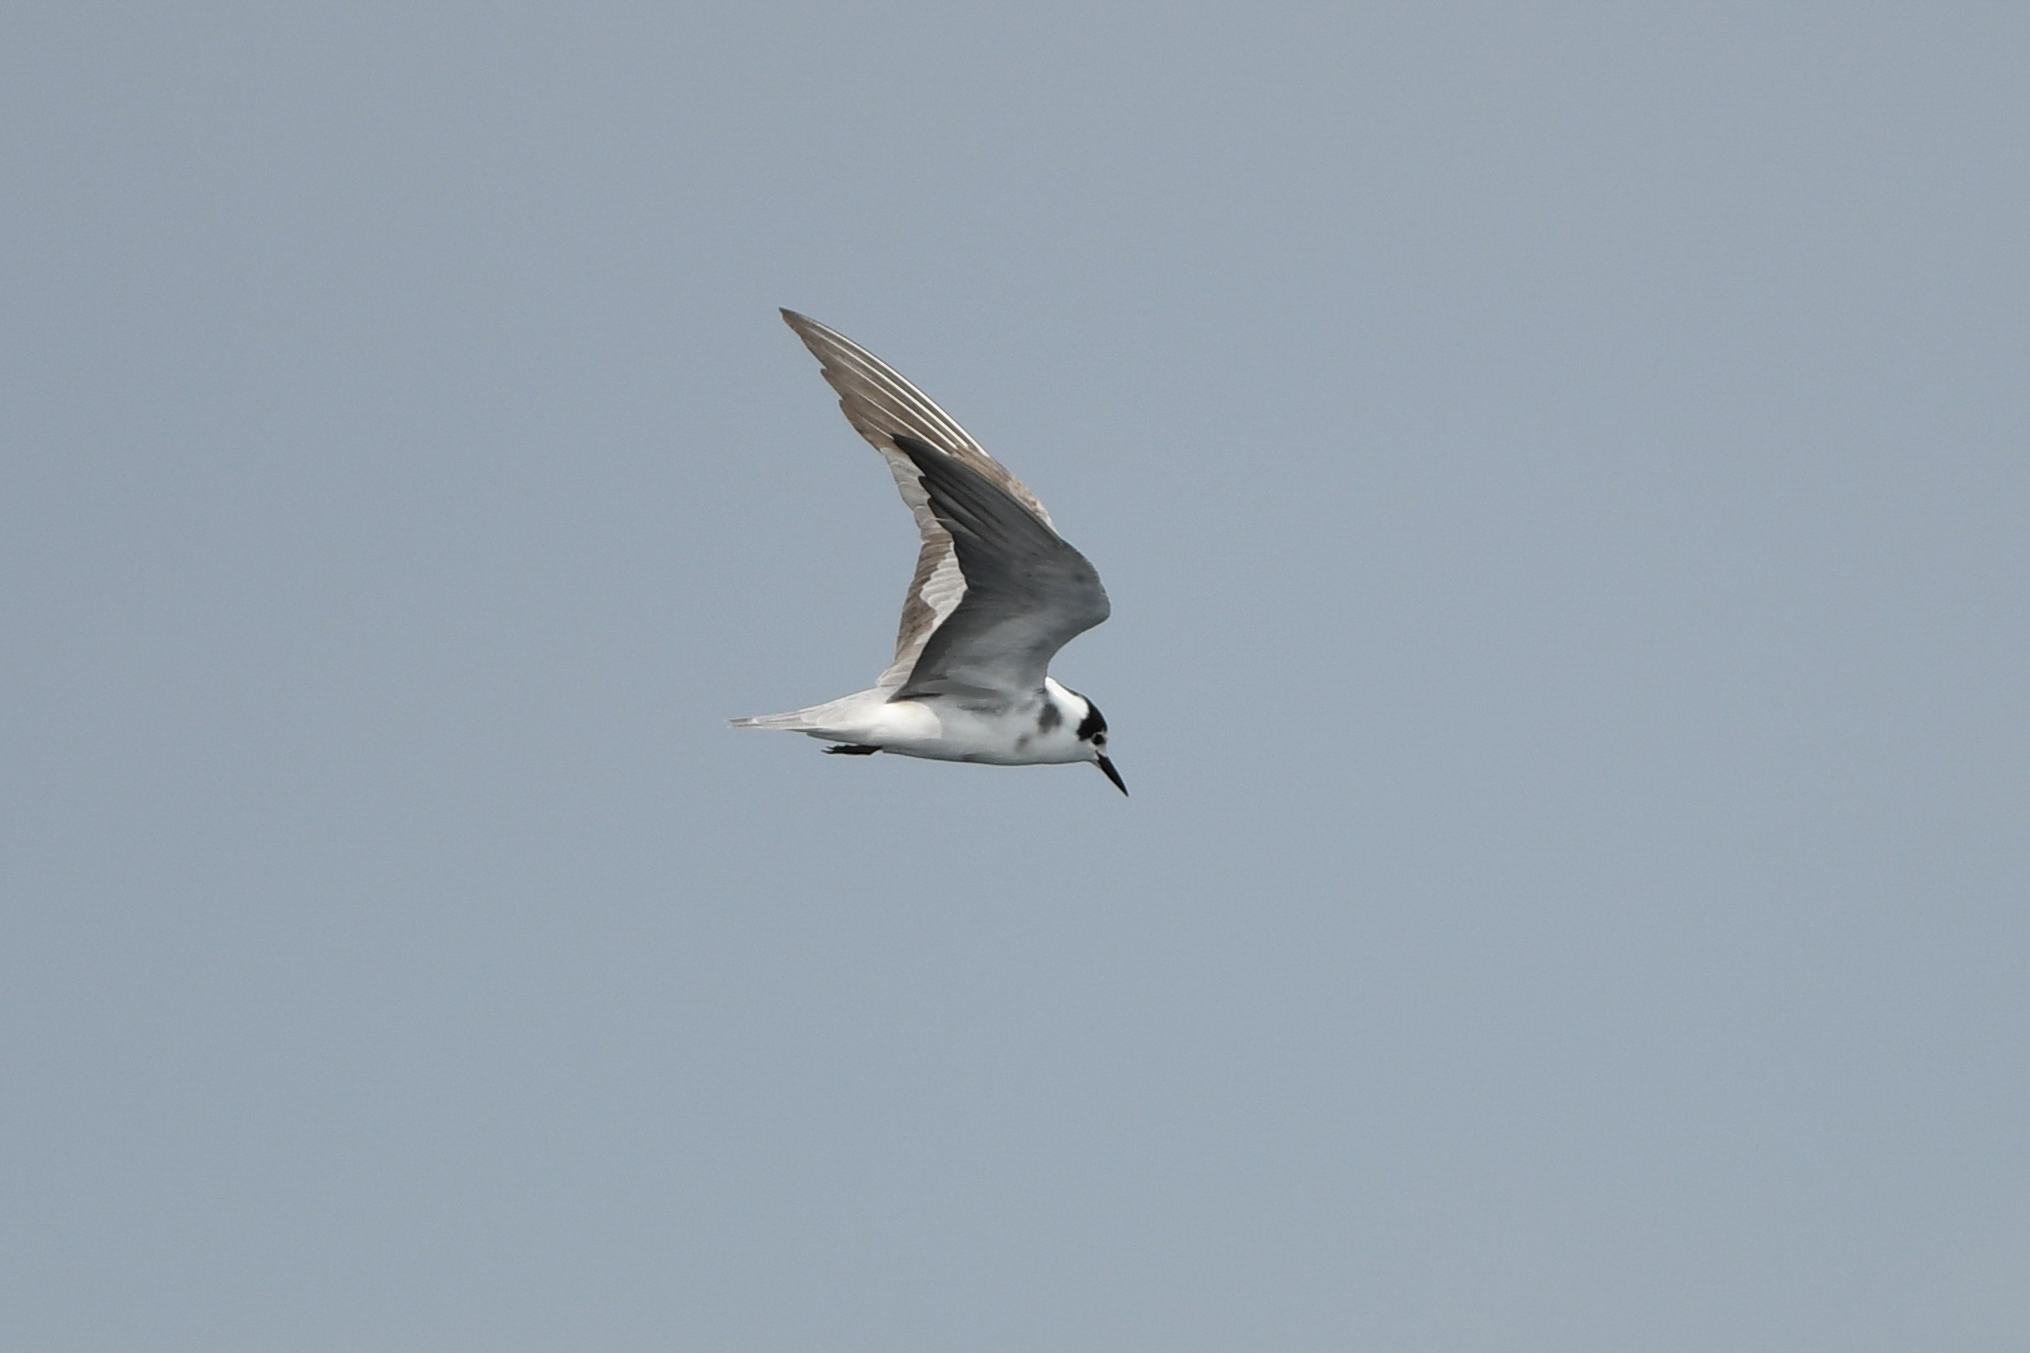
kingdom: Animalia
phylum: Chordata
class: Aves
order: Charadriiformes
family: Laridae
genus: Chlidonias
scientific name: Chlidonias niger
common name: Black tern
